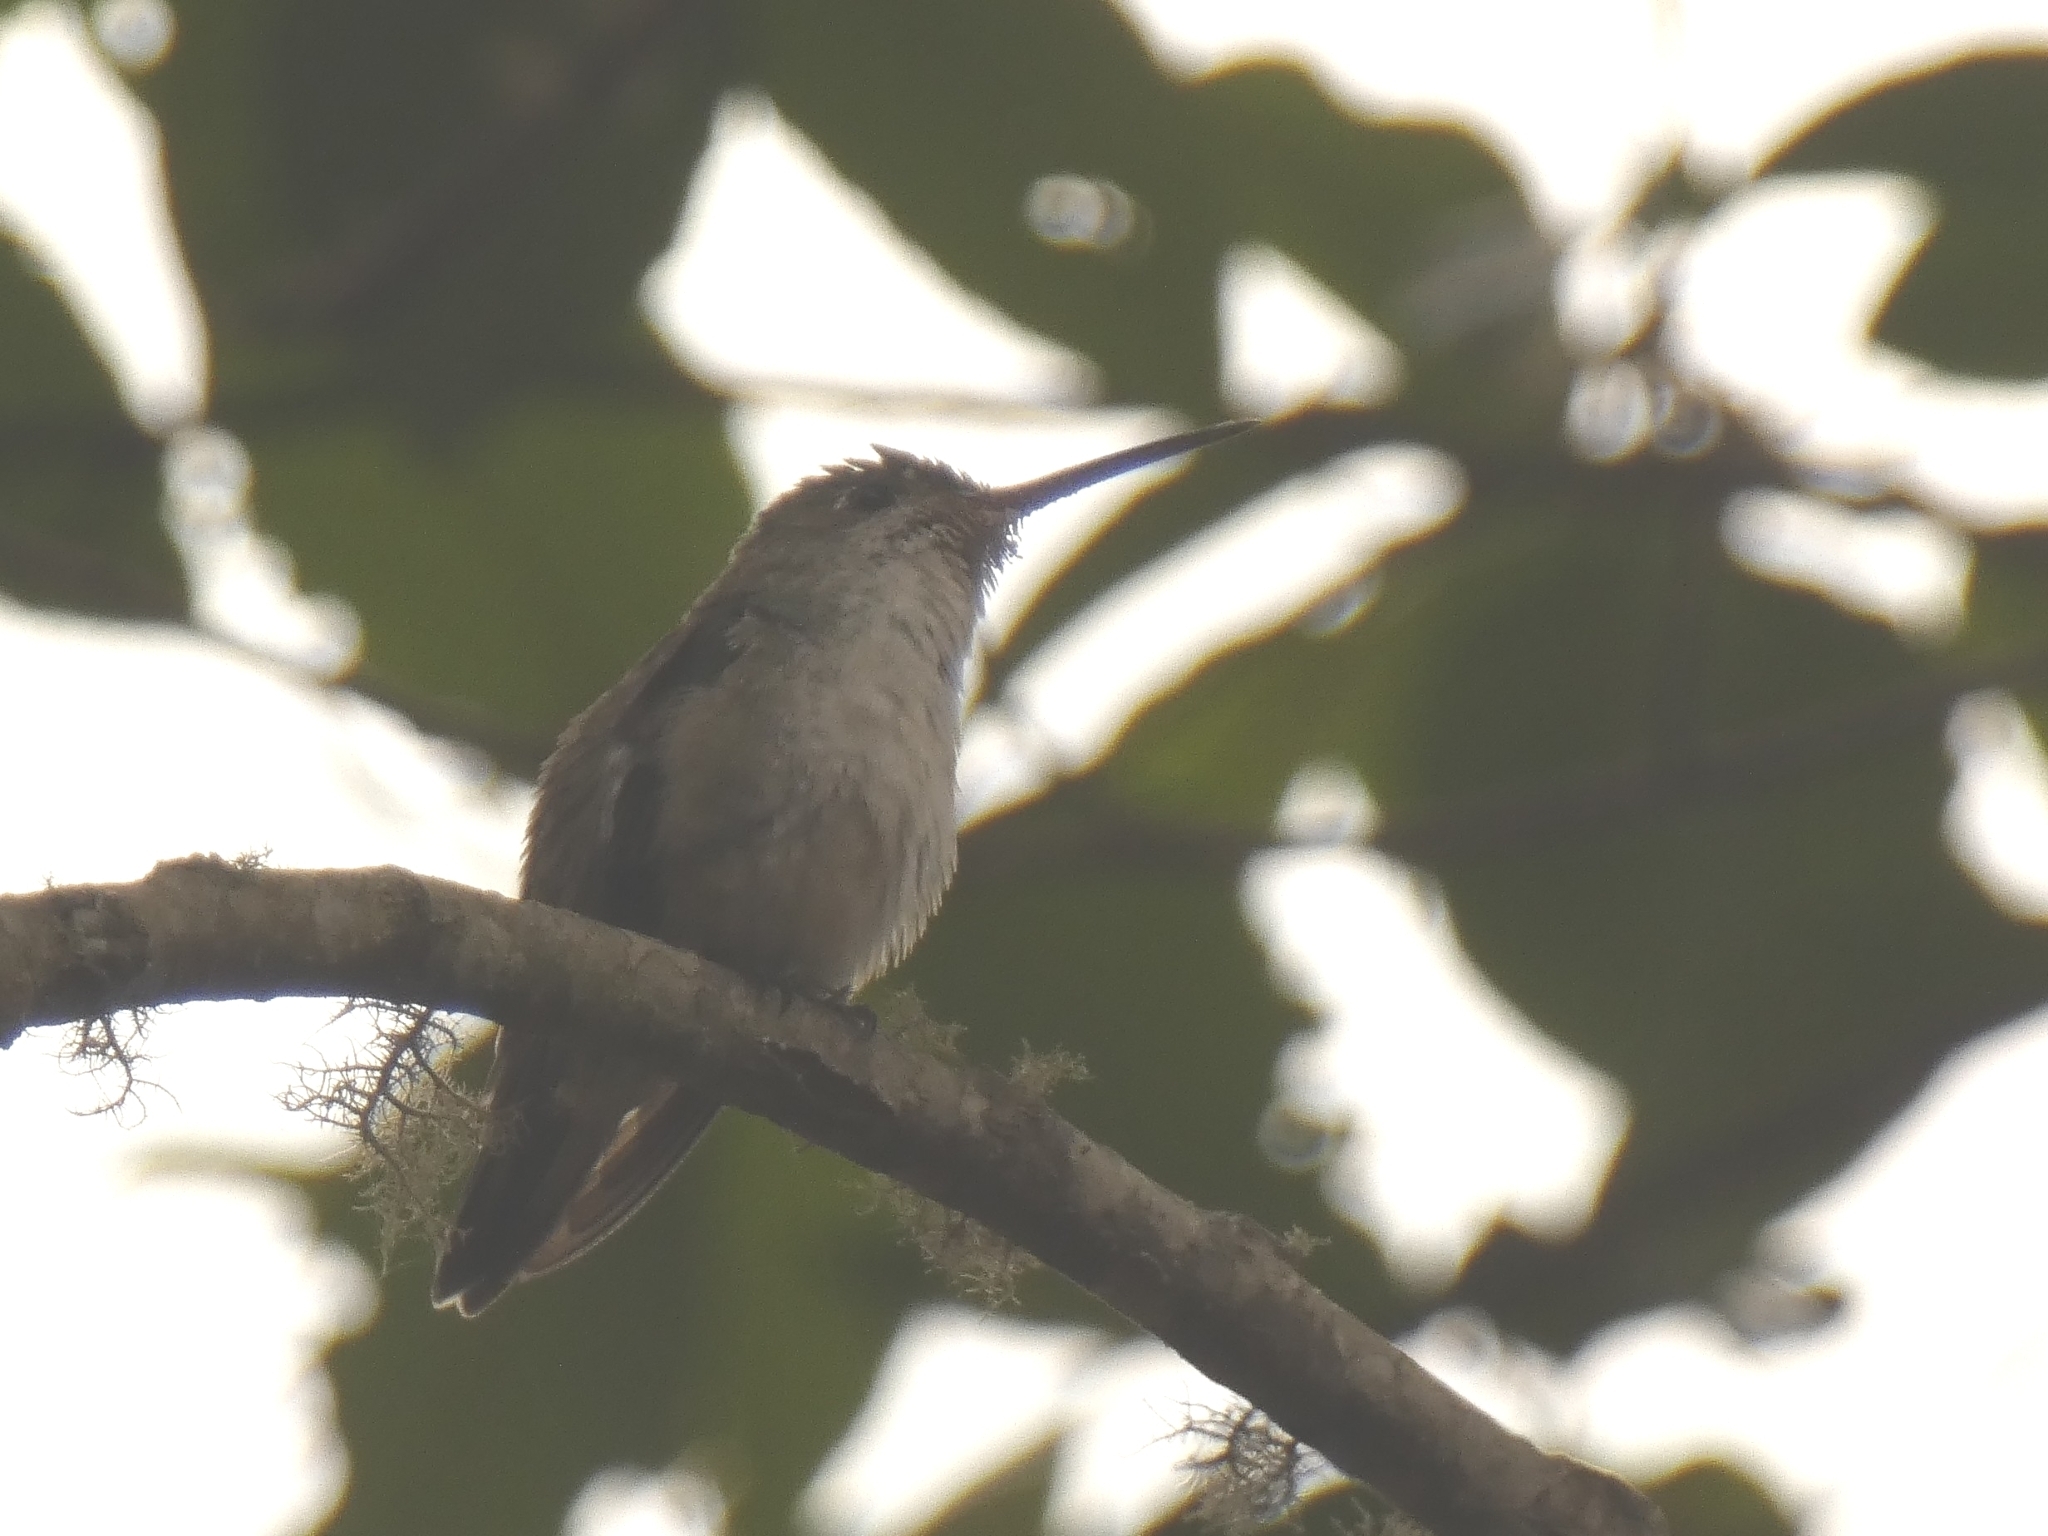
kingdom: Animalia
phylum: Chordata
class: Aves
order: Apodiformes
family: Trochilidae
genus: Elliotomyia
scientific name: Elliotomyia chionogaster
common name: White-bellied hummingbird
